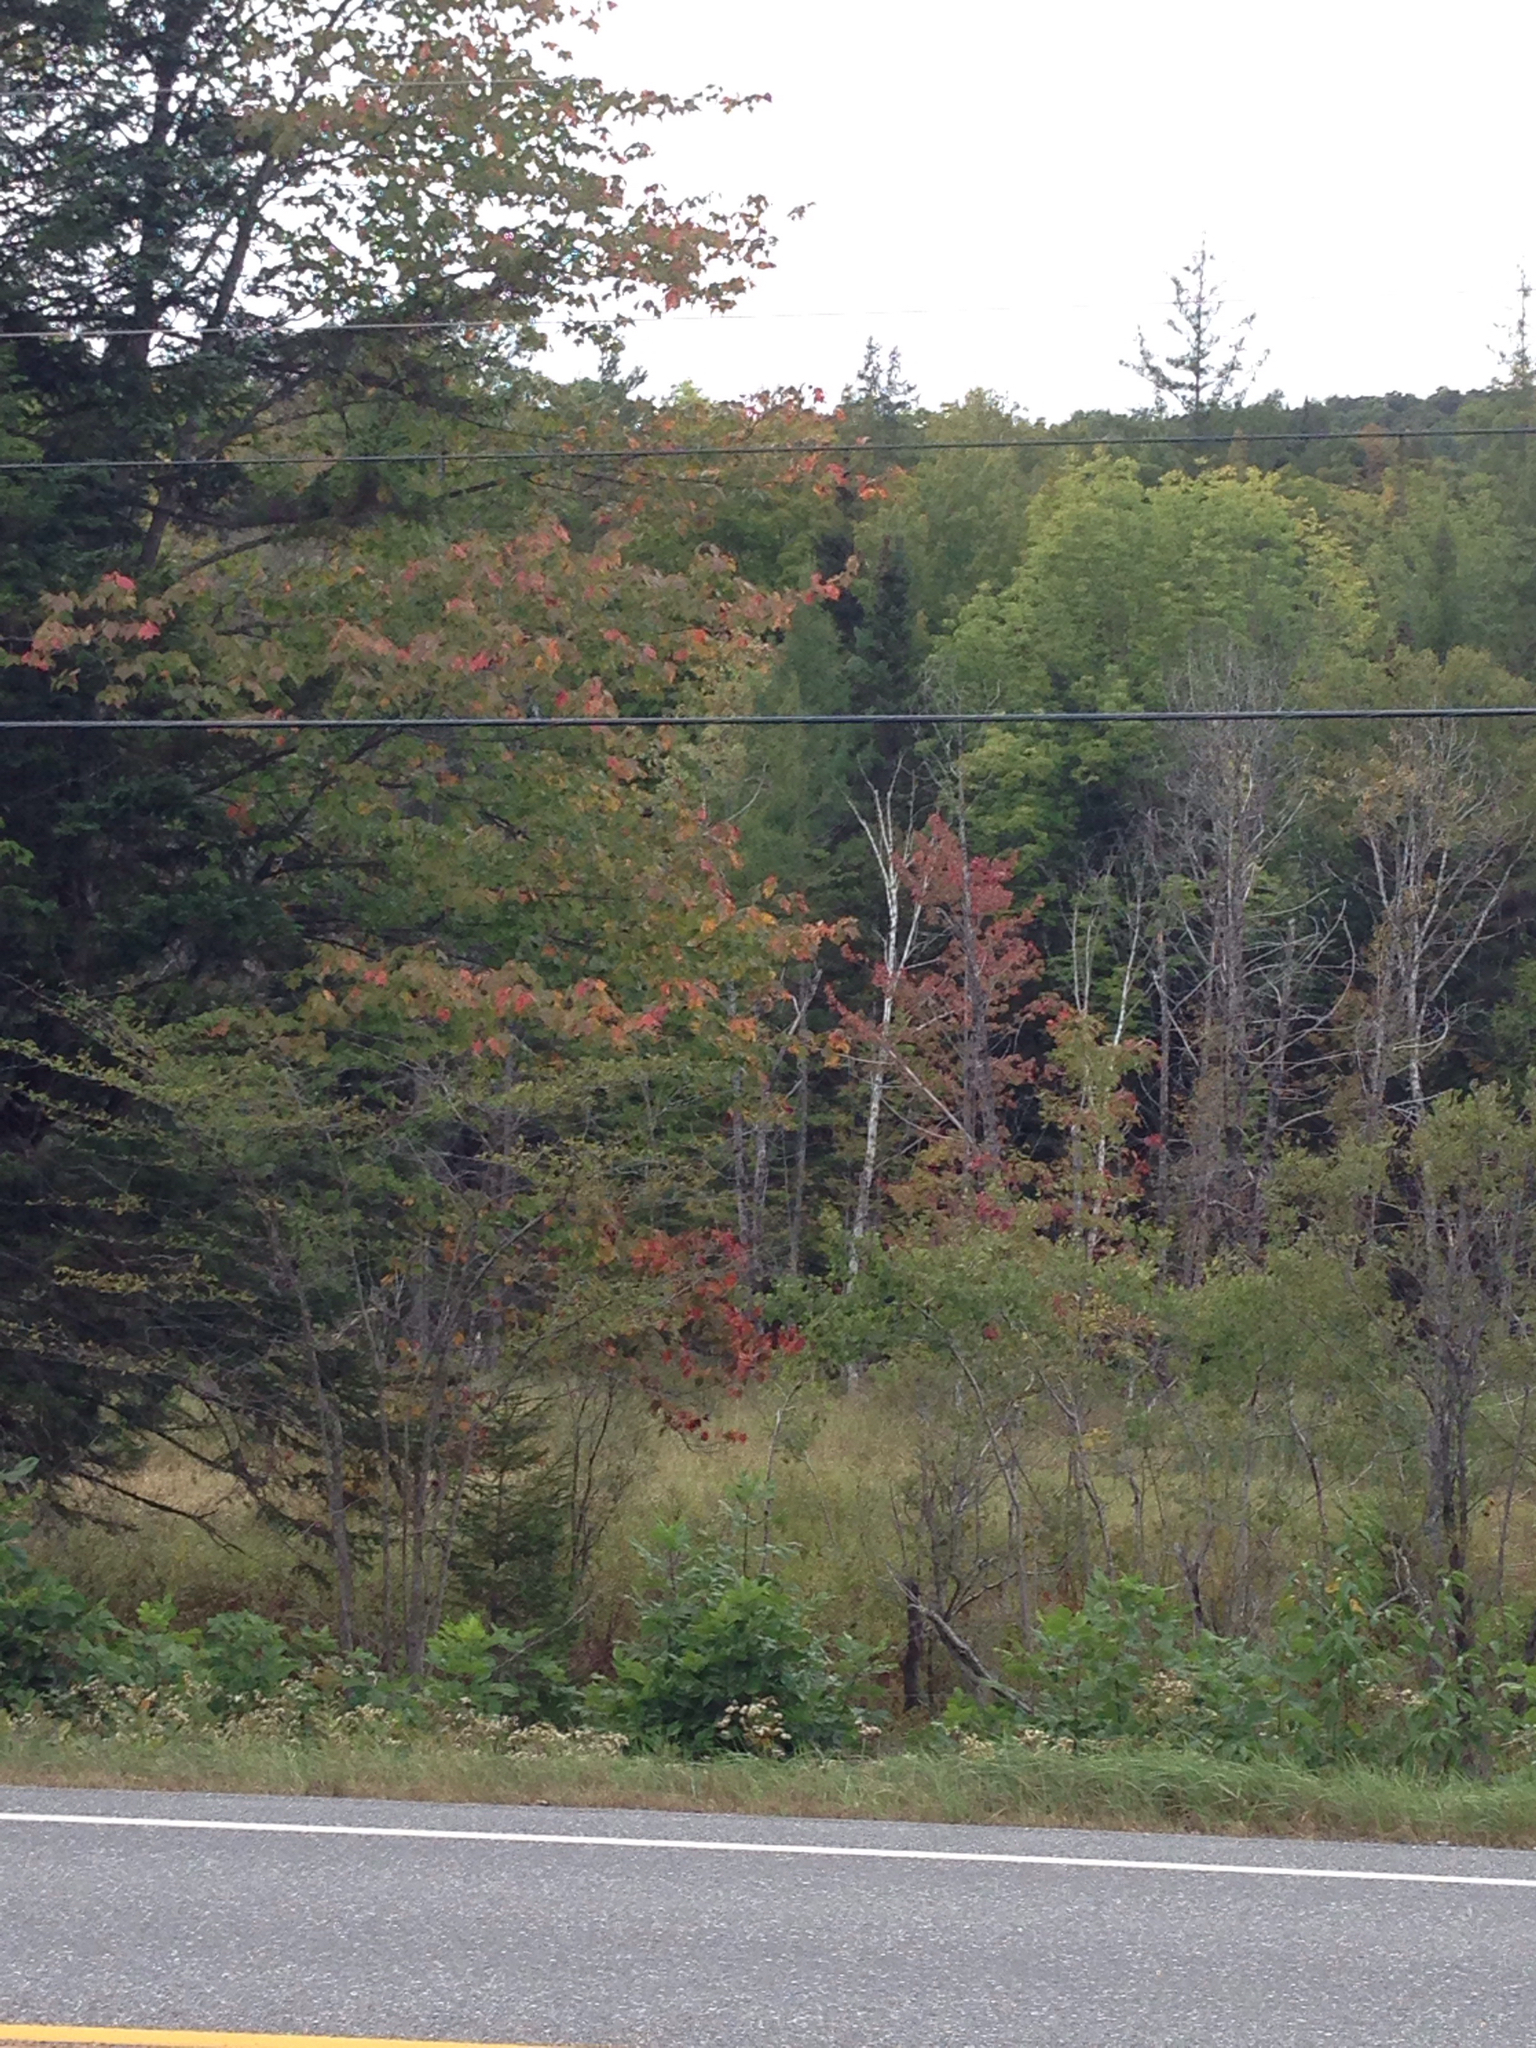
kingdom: Plantae
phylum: Tracheophyta
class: Magnoliopsida
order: Sapindales
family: Sapindaceae
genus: Acer
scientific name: Acer rubrum
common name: Red maple
